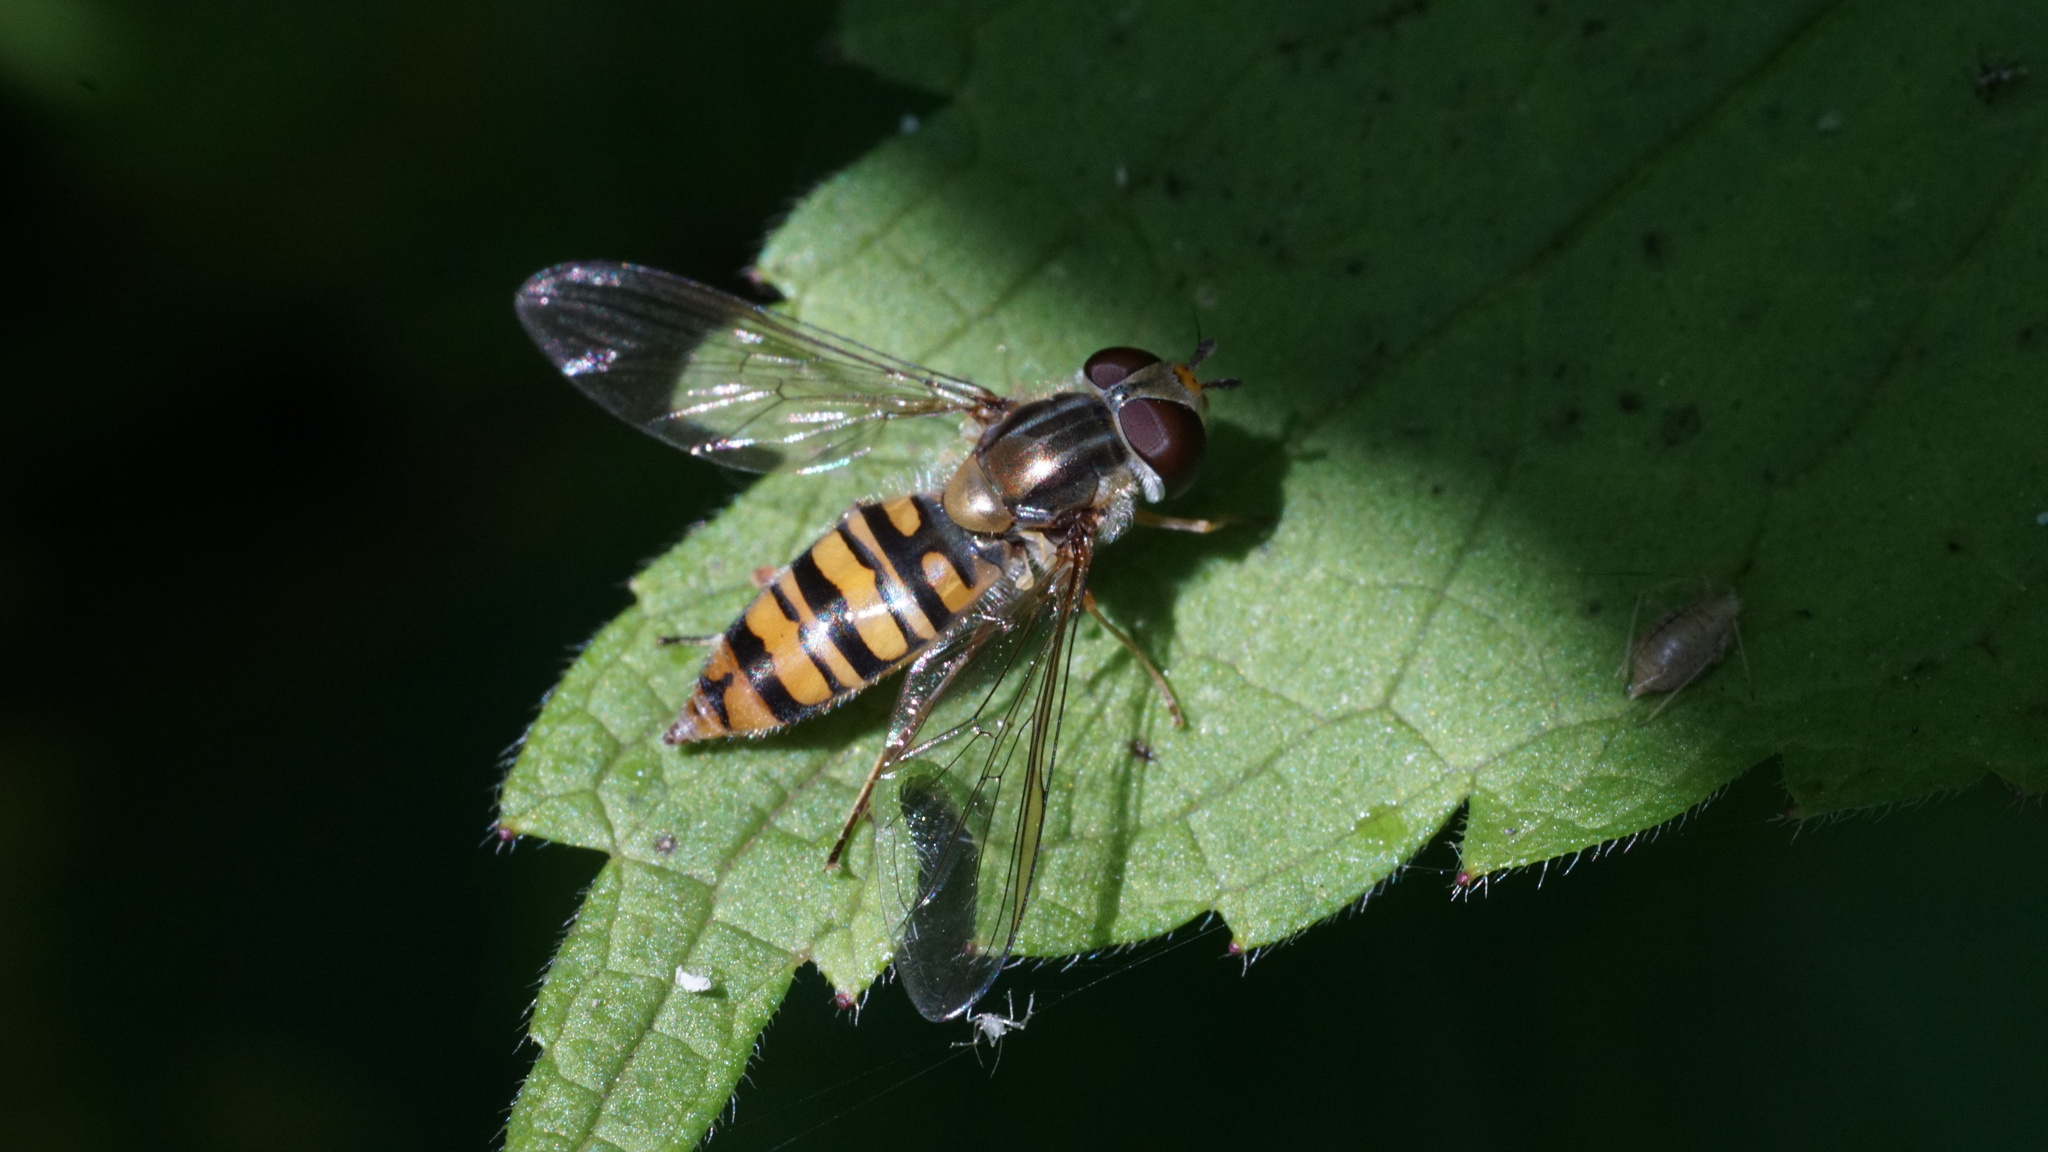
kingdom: Animalia
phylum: Arthropoda
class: Insecta
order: Diptera
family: Syrphidae
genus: Episyrphus
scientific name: Episyrphus balteatus
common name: Marmalade hoverfly
